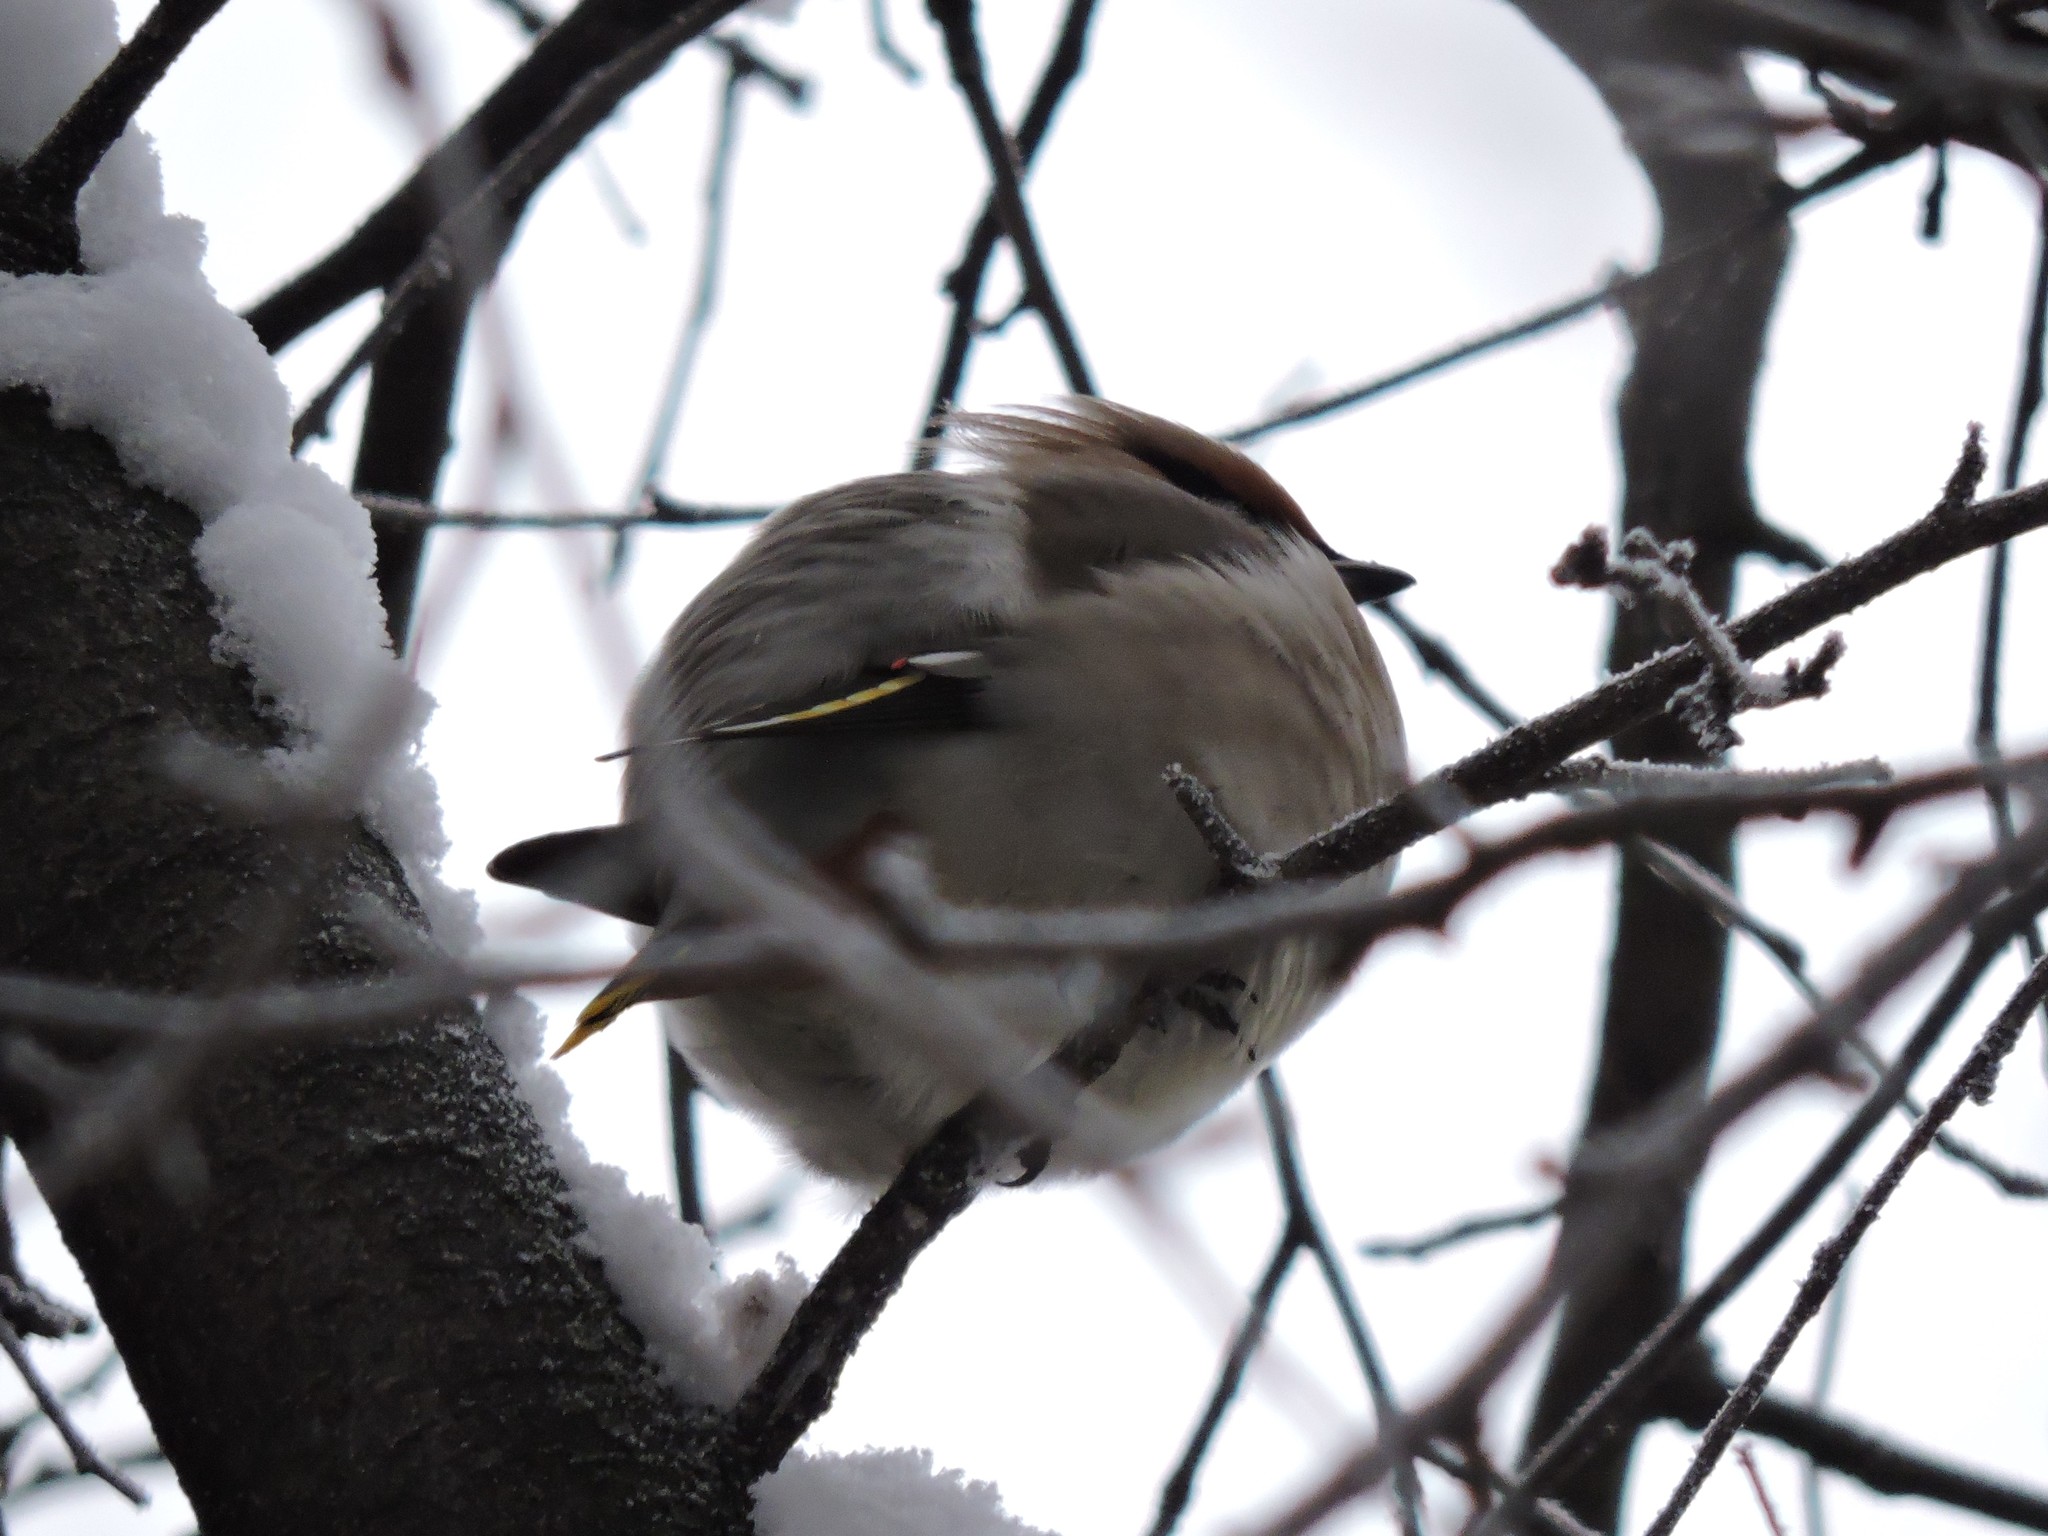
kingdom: Animalia
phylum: Chordata
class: Aves
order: Passeriformes
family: Bombycillidae
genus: Bombycilla
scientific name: Bombycilla garrulus
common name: Bohemian waxwing
